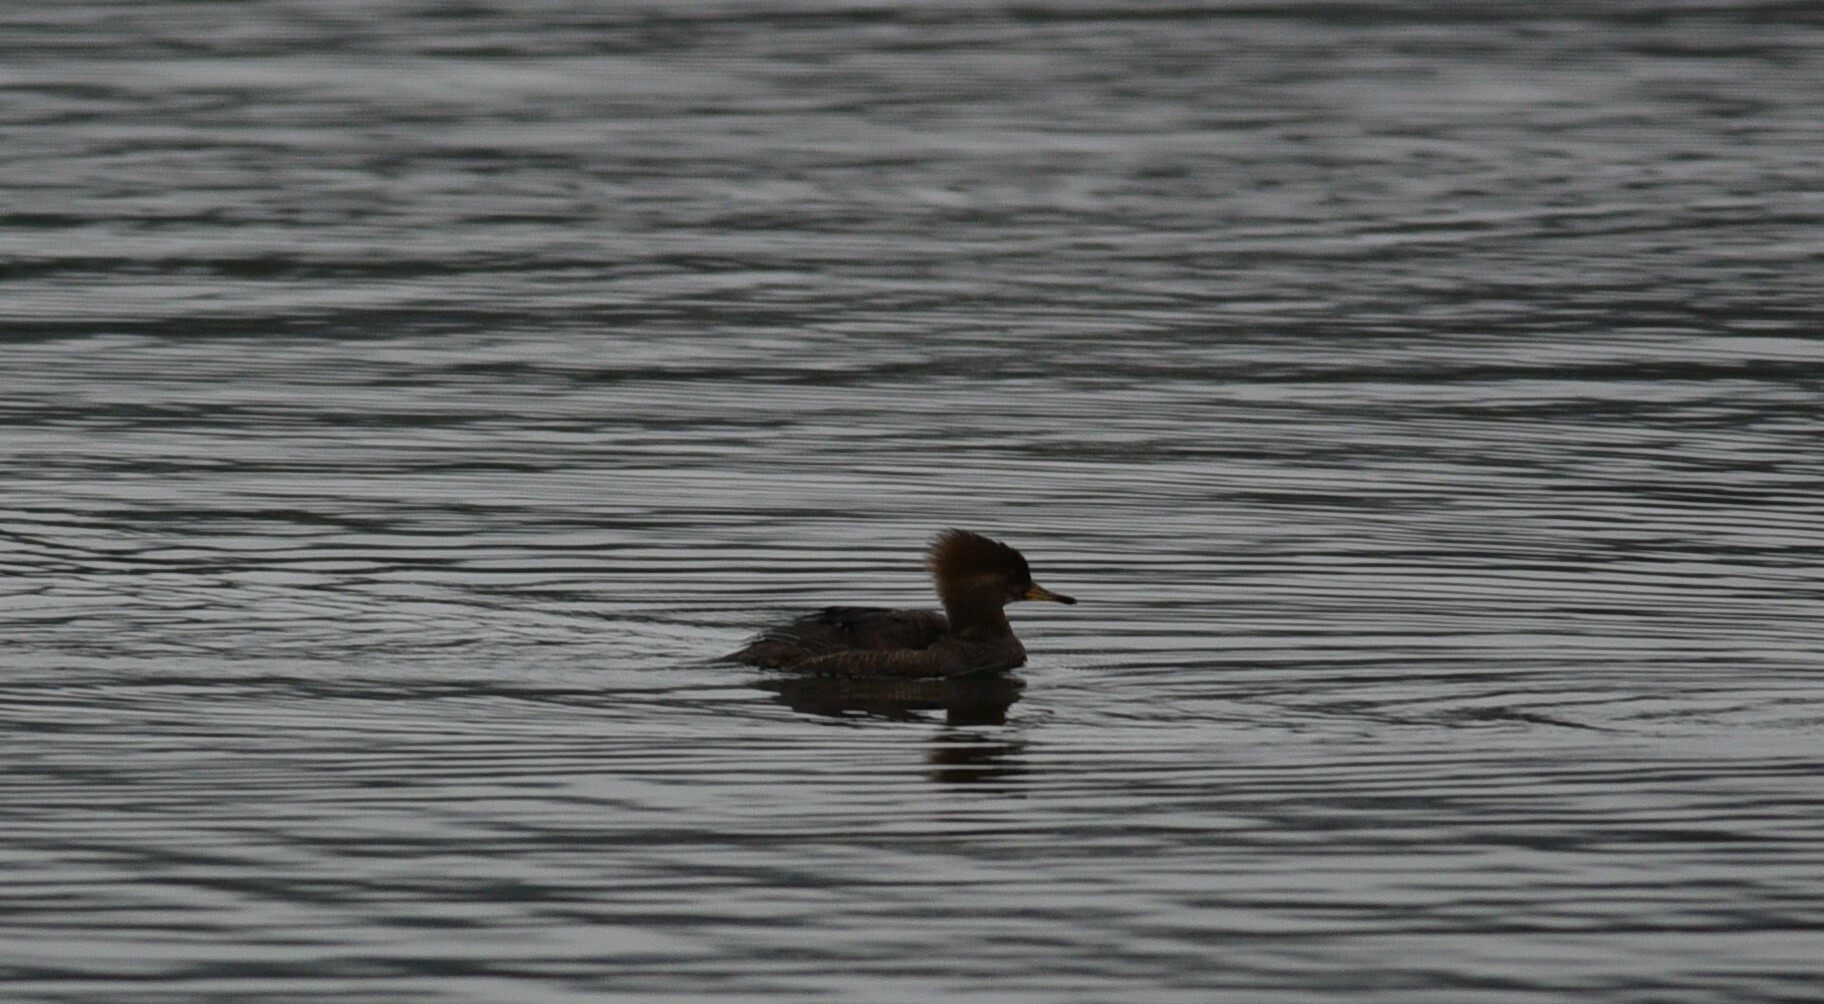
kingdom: Animalia
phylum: Chordata
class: Aves
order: Anseriformes
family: Anatidae
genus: Lophodytes
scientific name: Lophodytes cucullatus
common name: Hooded merganser
